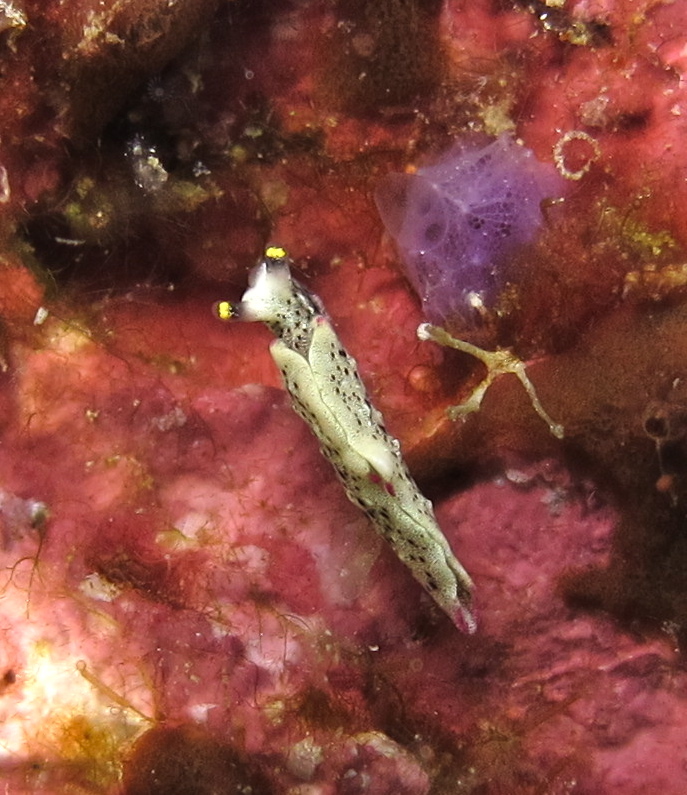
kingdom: Animalia
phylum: Mollusca
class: Gastropoda
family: Plakobranchidae
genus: Elysia
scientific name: Elysia asbecki
